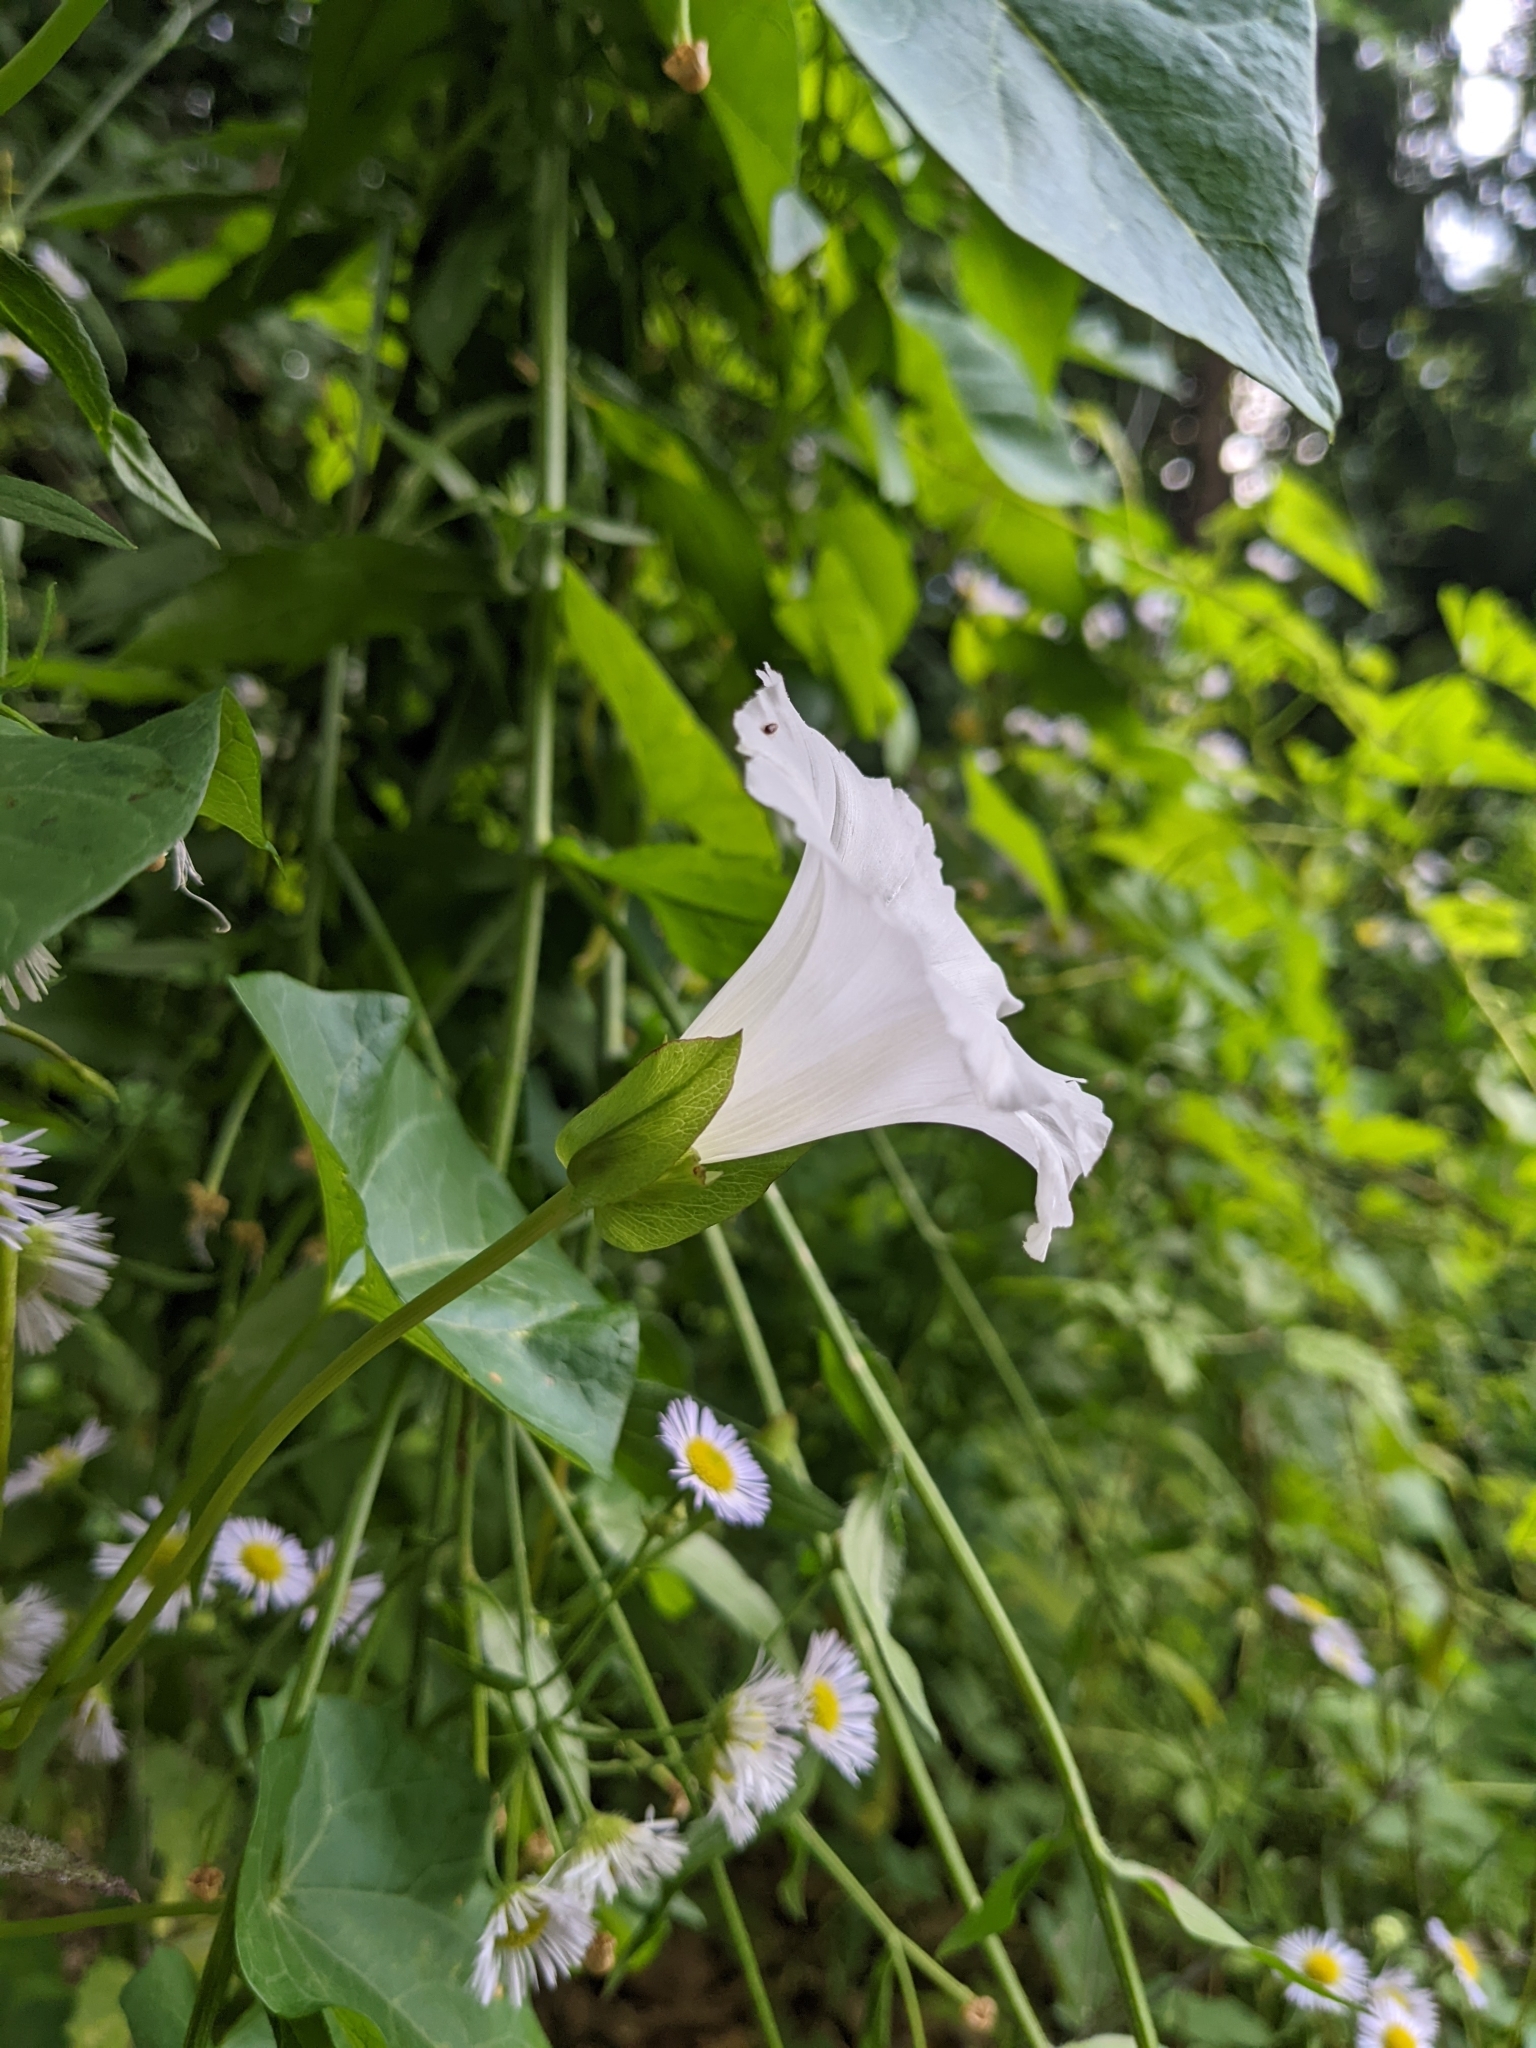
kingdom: Plantae
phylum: Tracheophyta
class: Magnoliopsida
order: Solanales
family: Convolvulaceae
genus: Calystegia
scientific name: Calystegia sepium
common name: Hedge bindweed
